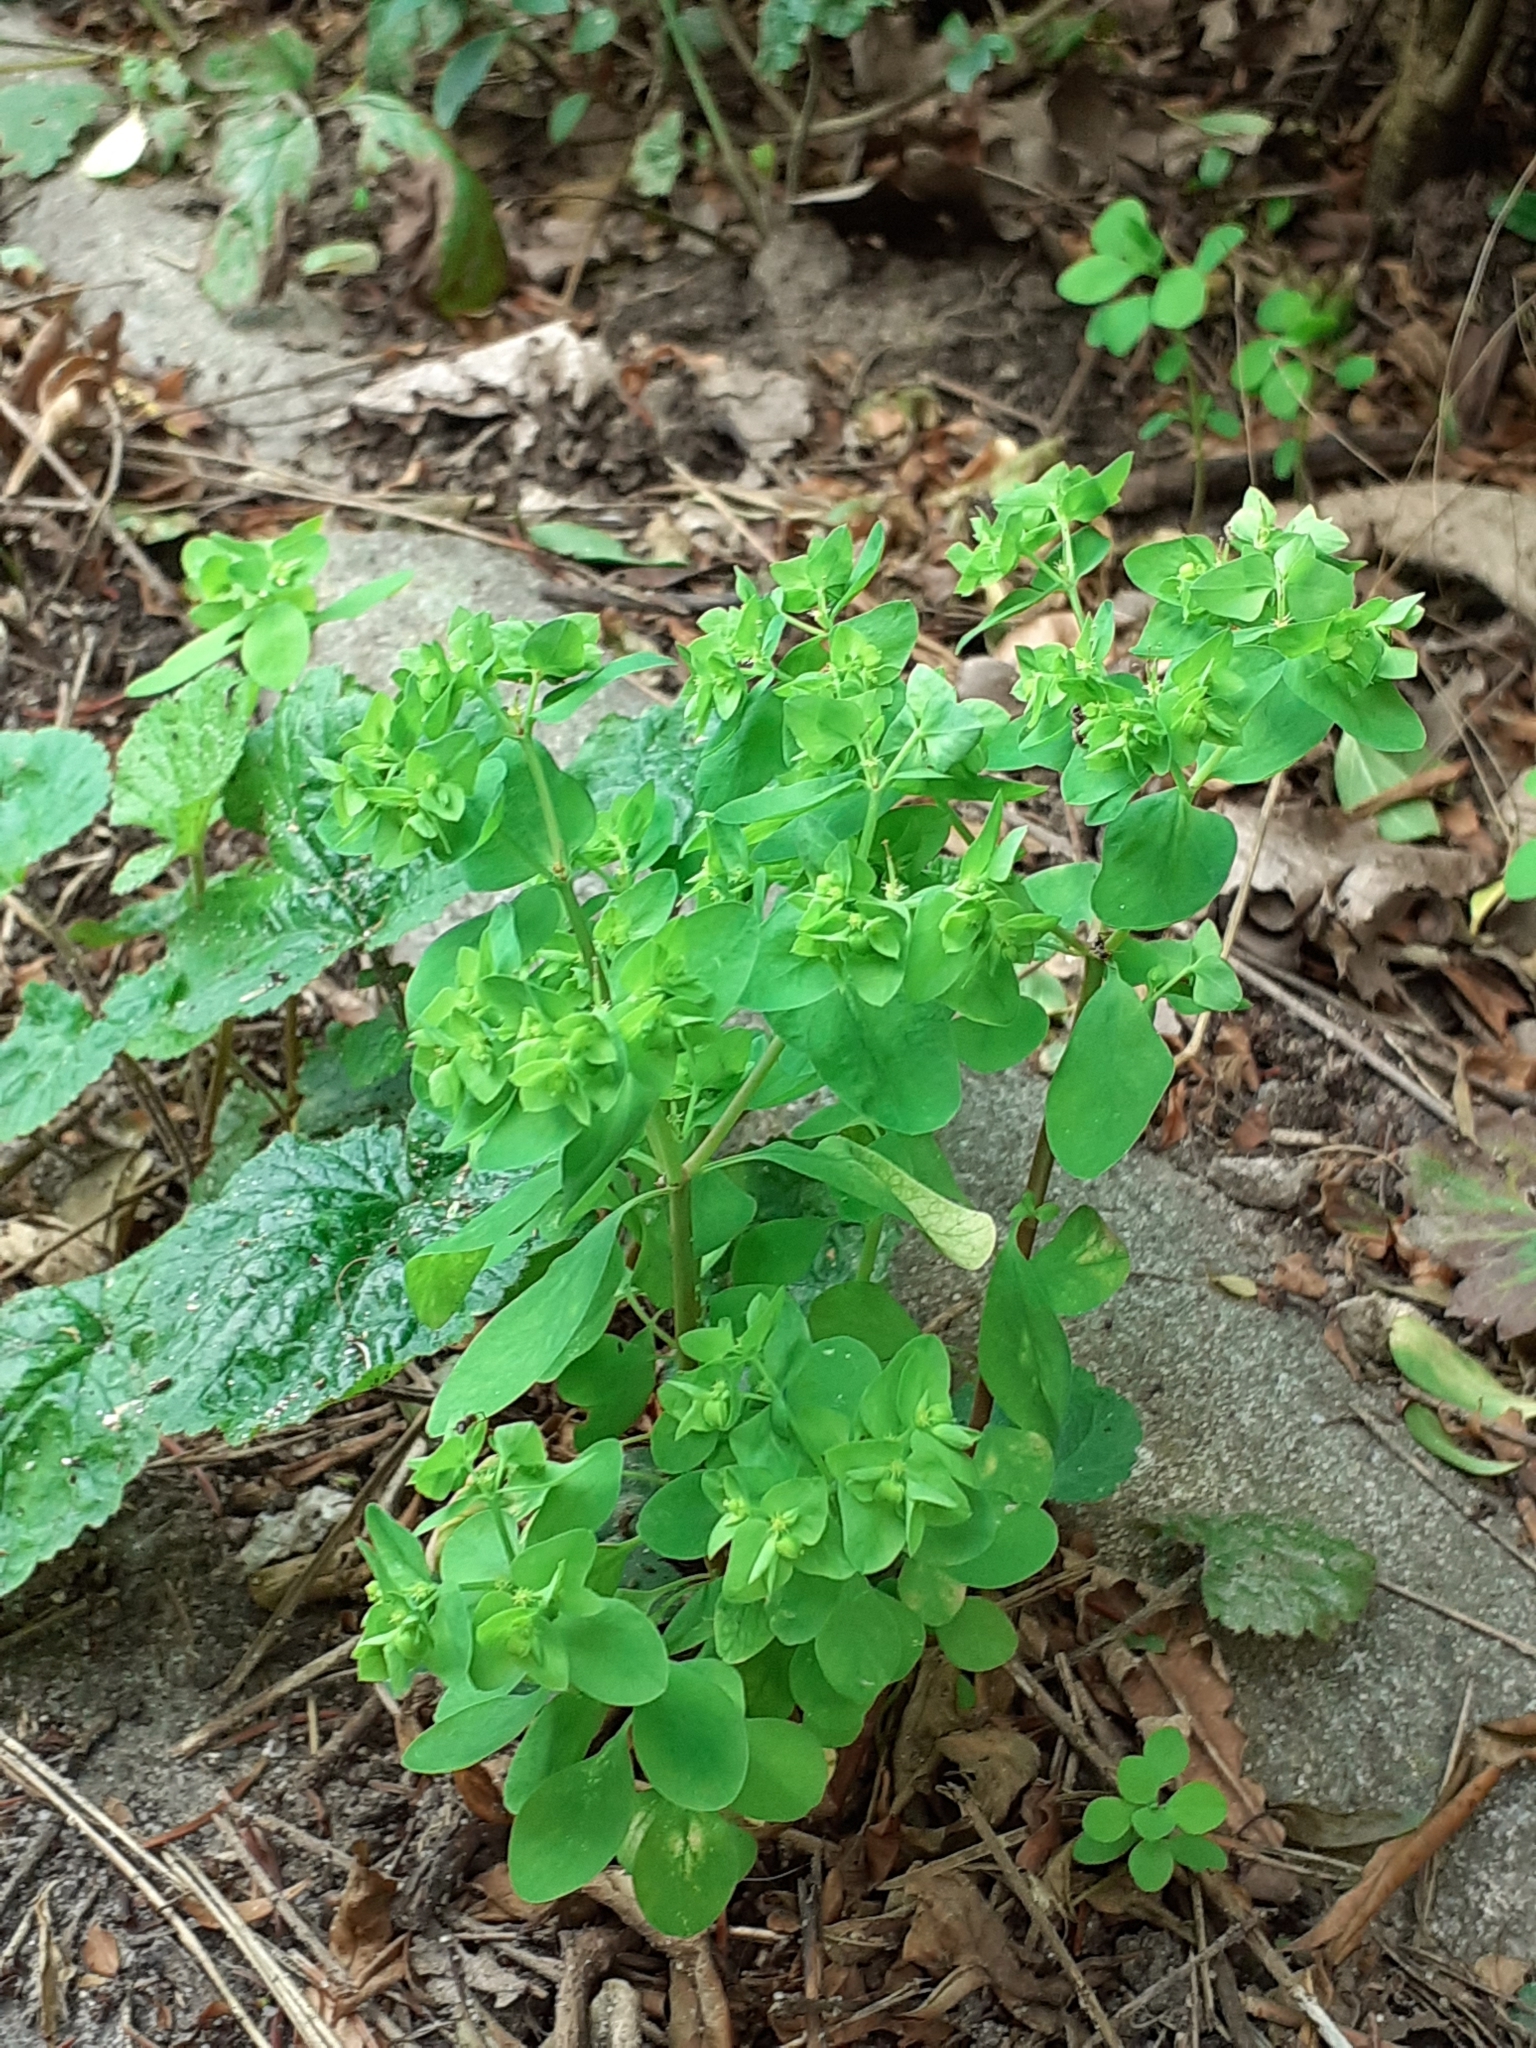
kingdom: Plantae
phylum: Tracheophyta
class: Magnoliopsida
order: Malpighiales
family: Euphorbiaceae
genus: Euphorbia
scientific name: Euphorbia peplus
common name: Petty spurge
